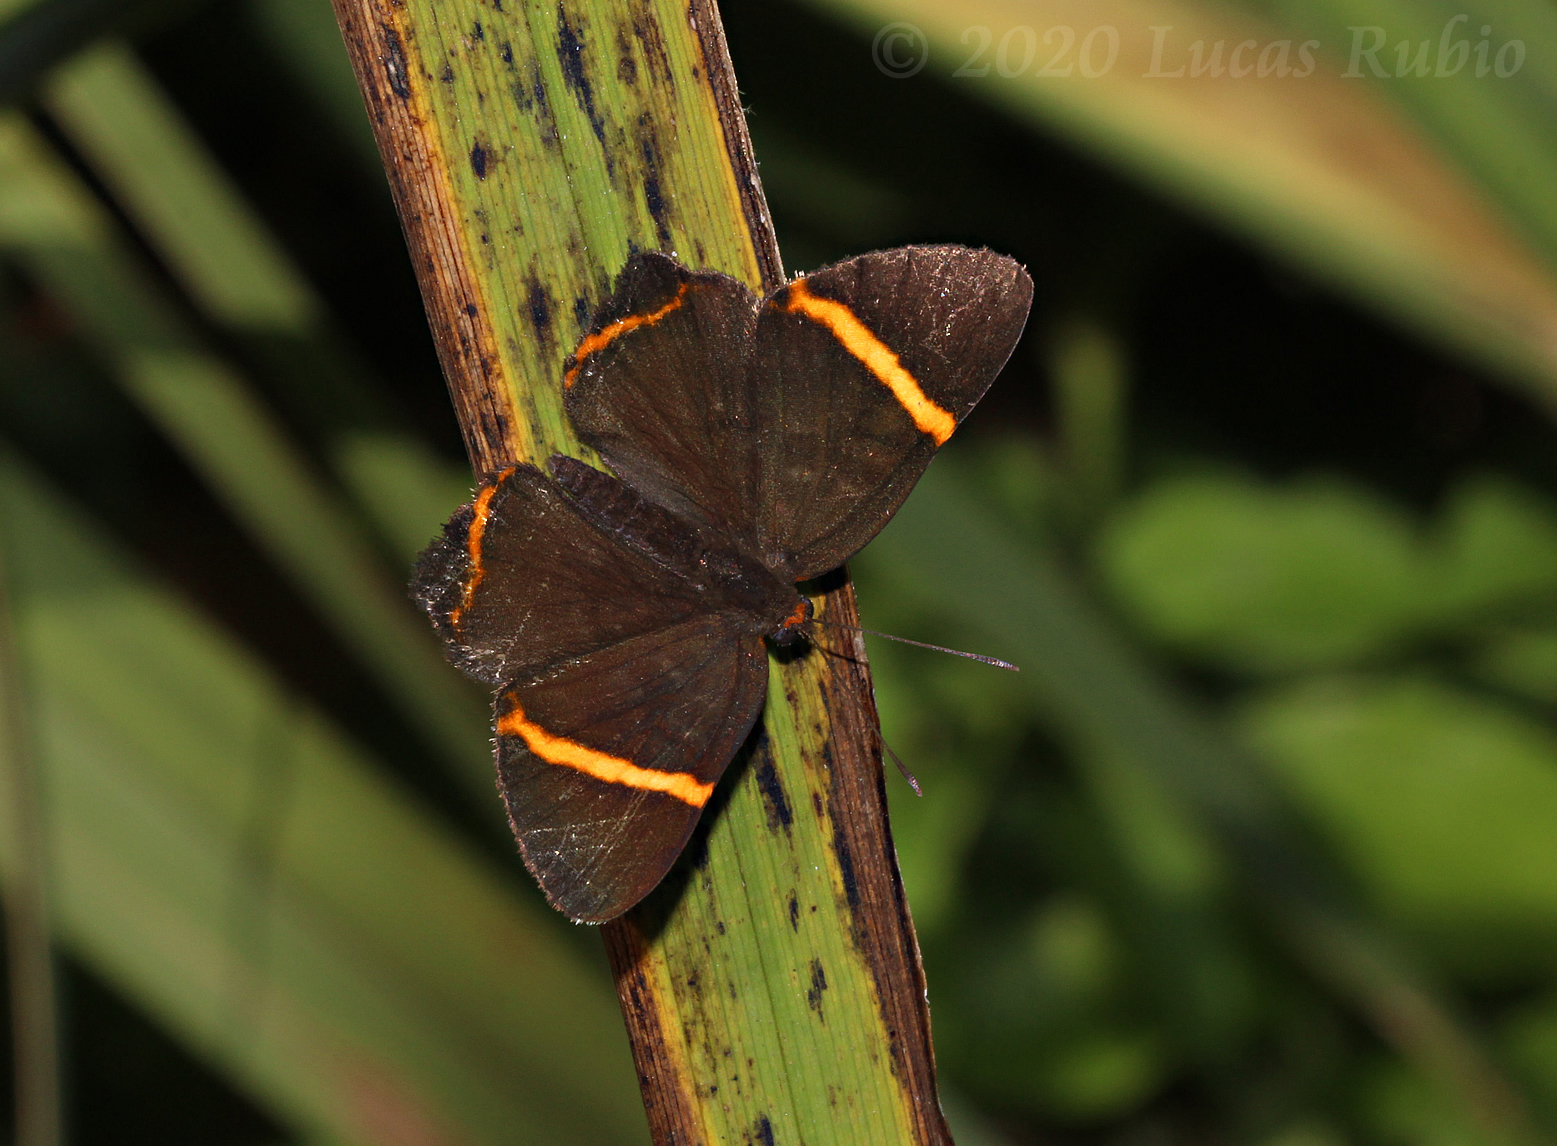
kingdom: Animalia
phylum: Arthropoda
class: Insecta
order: Lepidoptera
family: Riodinidae
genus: Riodina
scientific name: Riodina lysippoides
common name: Little dancer metalmark
